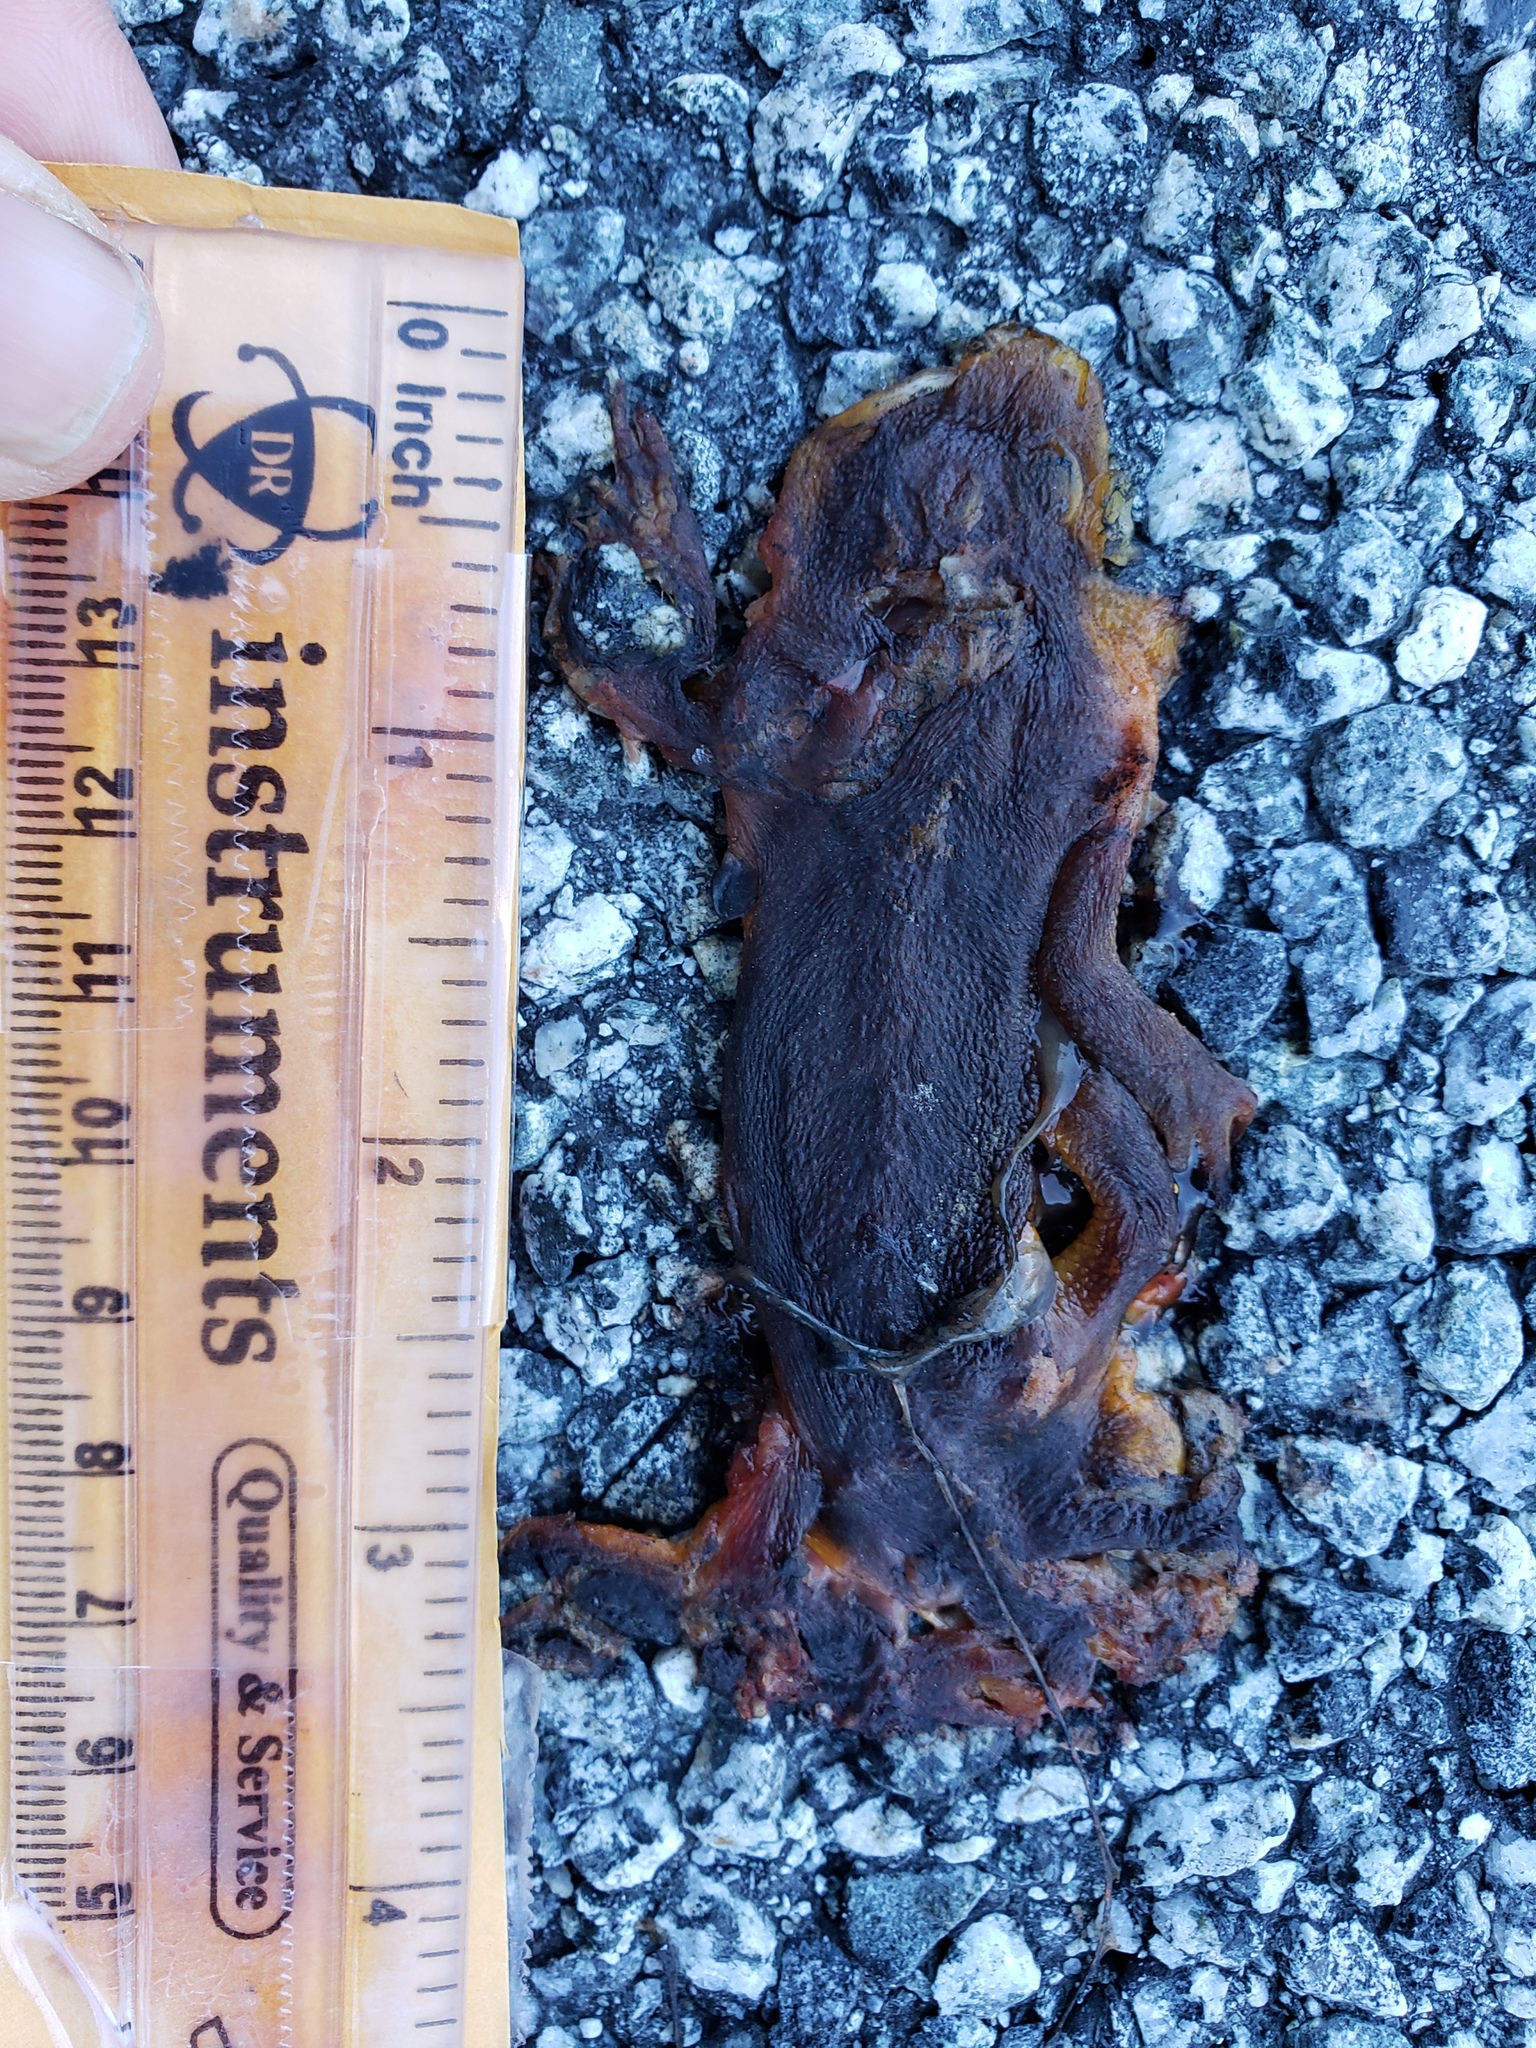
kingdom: Animalia
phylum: Chordata
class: Amphibia
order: Caudata
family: Salamandridae
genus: Taricha
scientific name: Taricha
